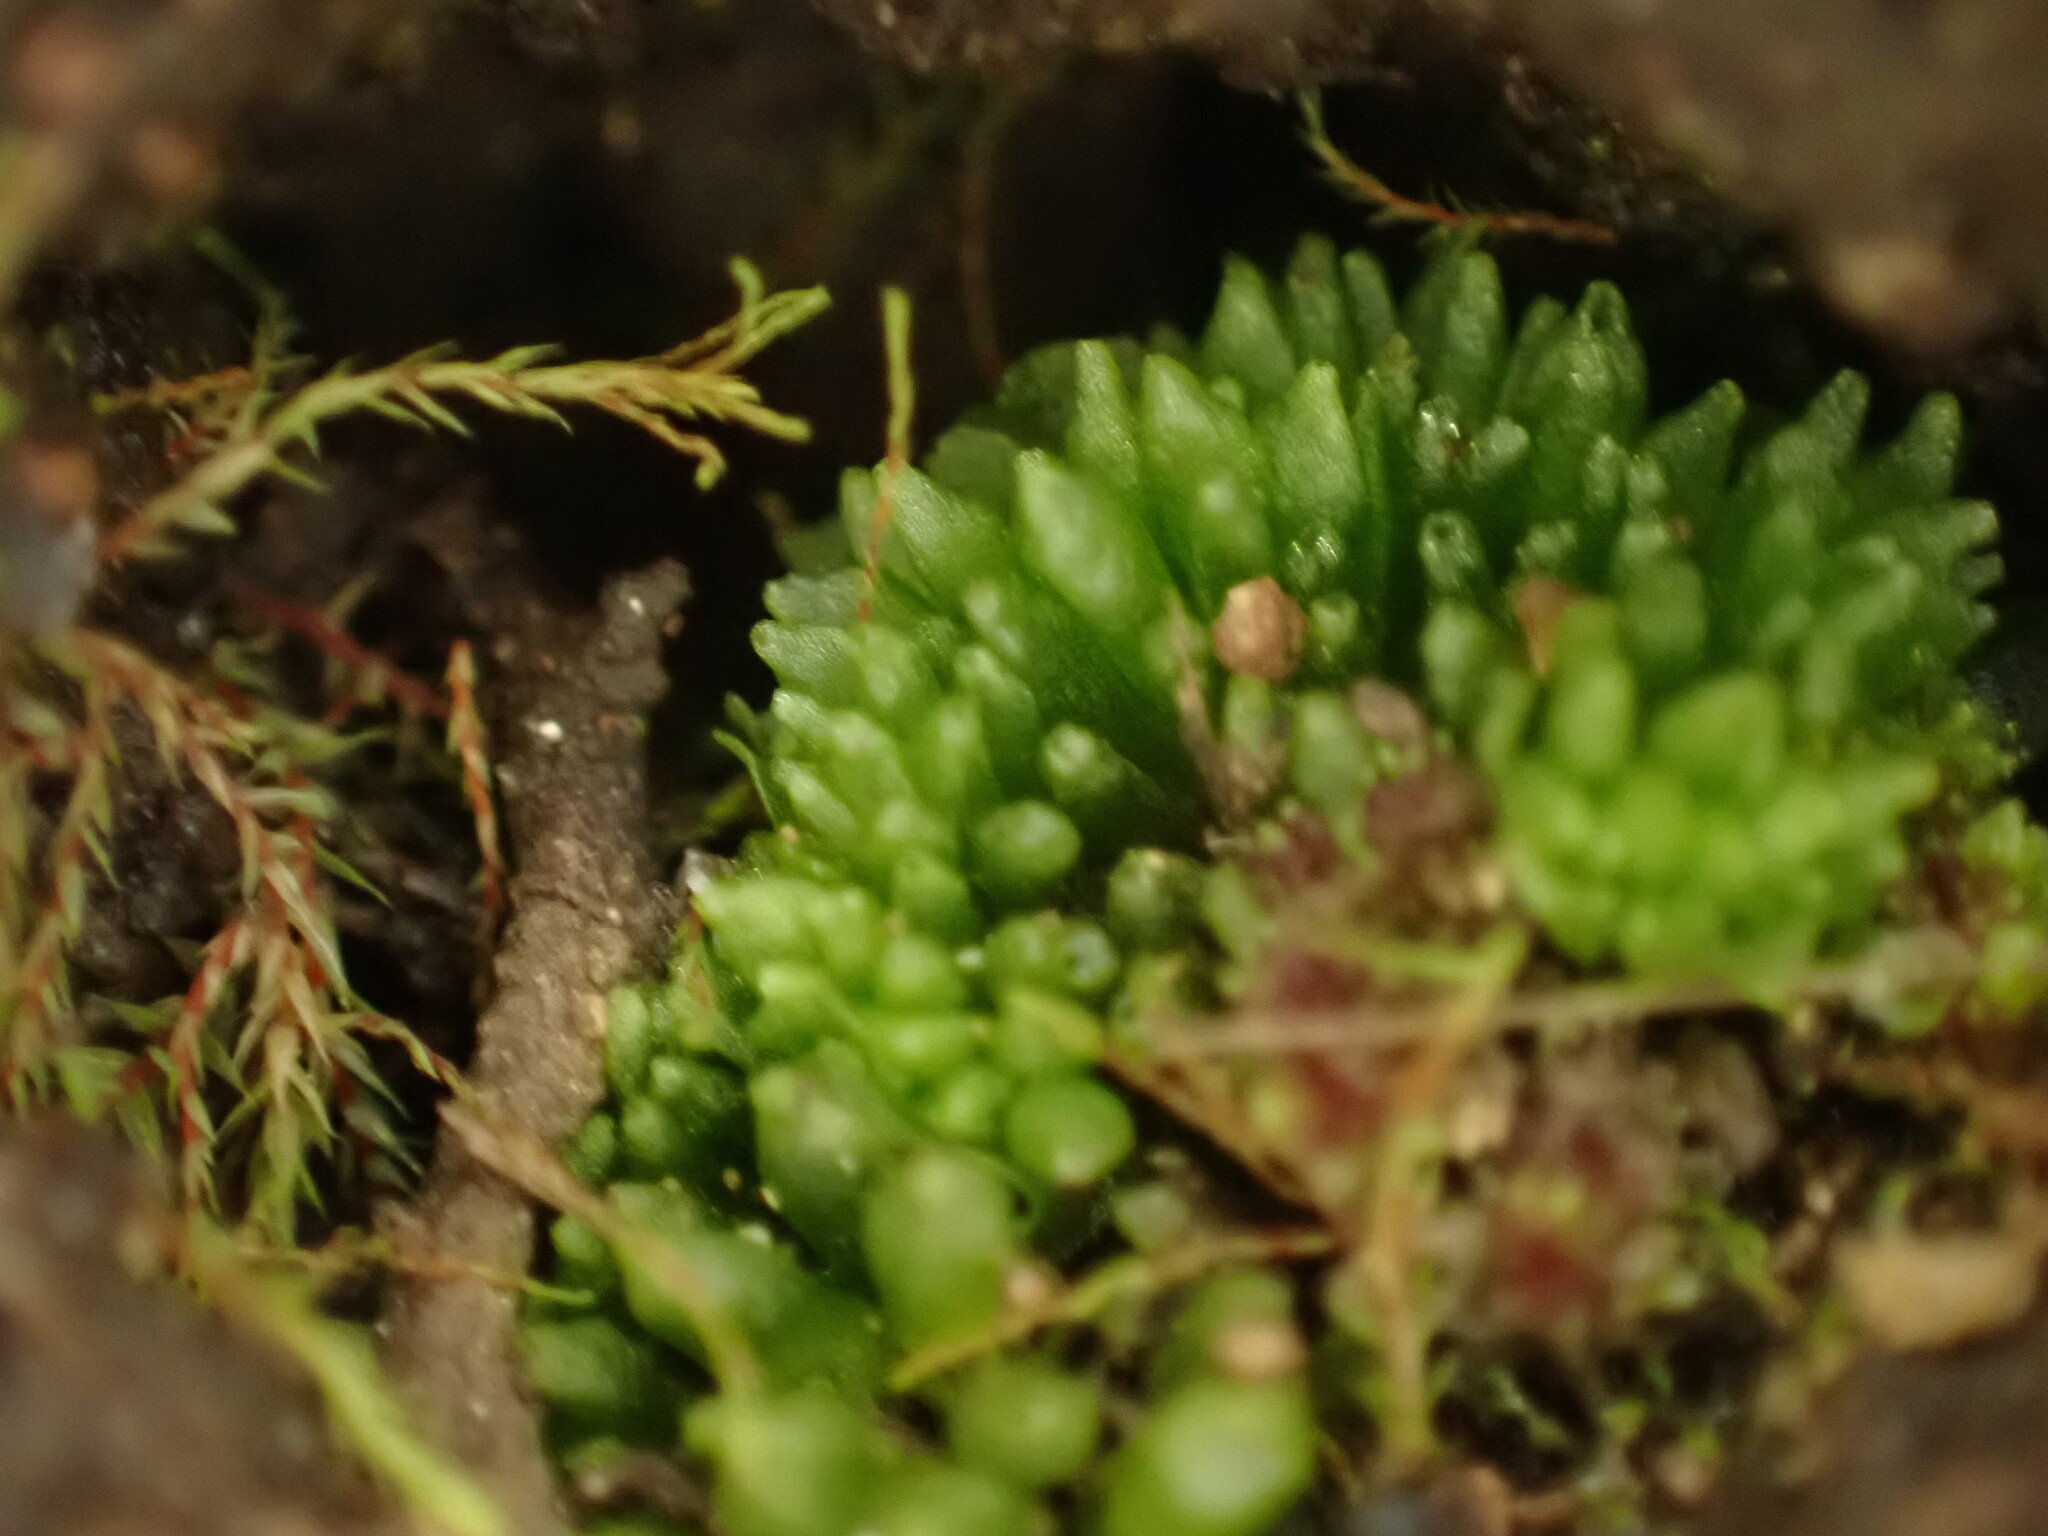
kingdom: Plantae
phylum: Marchantiophyta
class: Marchantiopsida
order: Sphaerocarpales
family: Sphaerocarpaceae
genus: Sphaerocarpos
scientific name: Sphaerocarpos texanus
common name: Texas balloonwort
